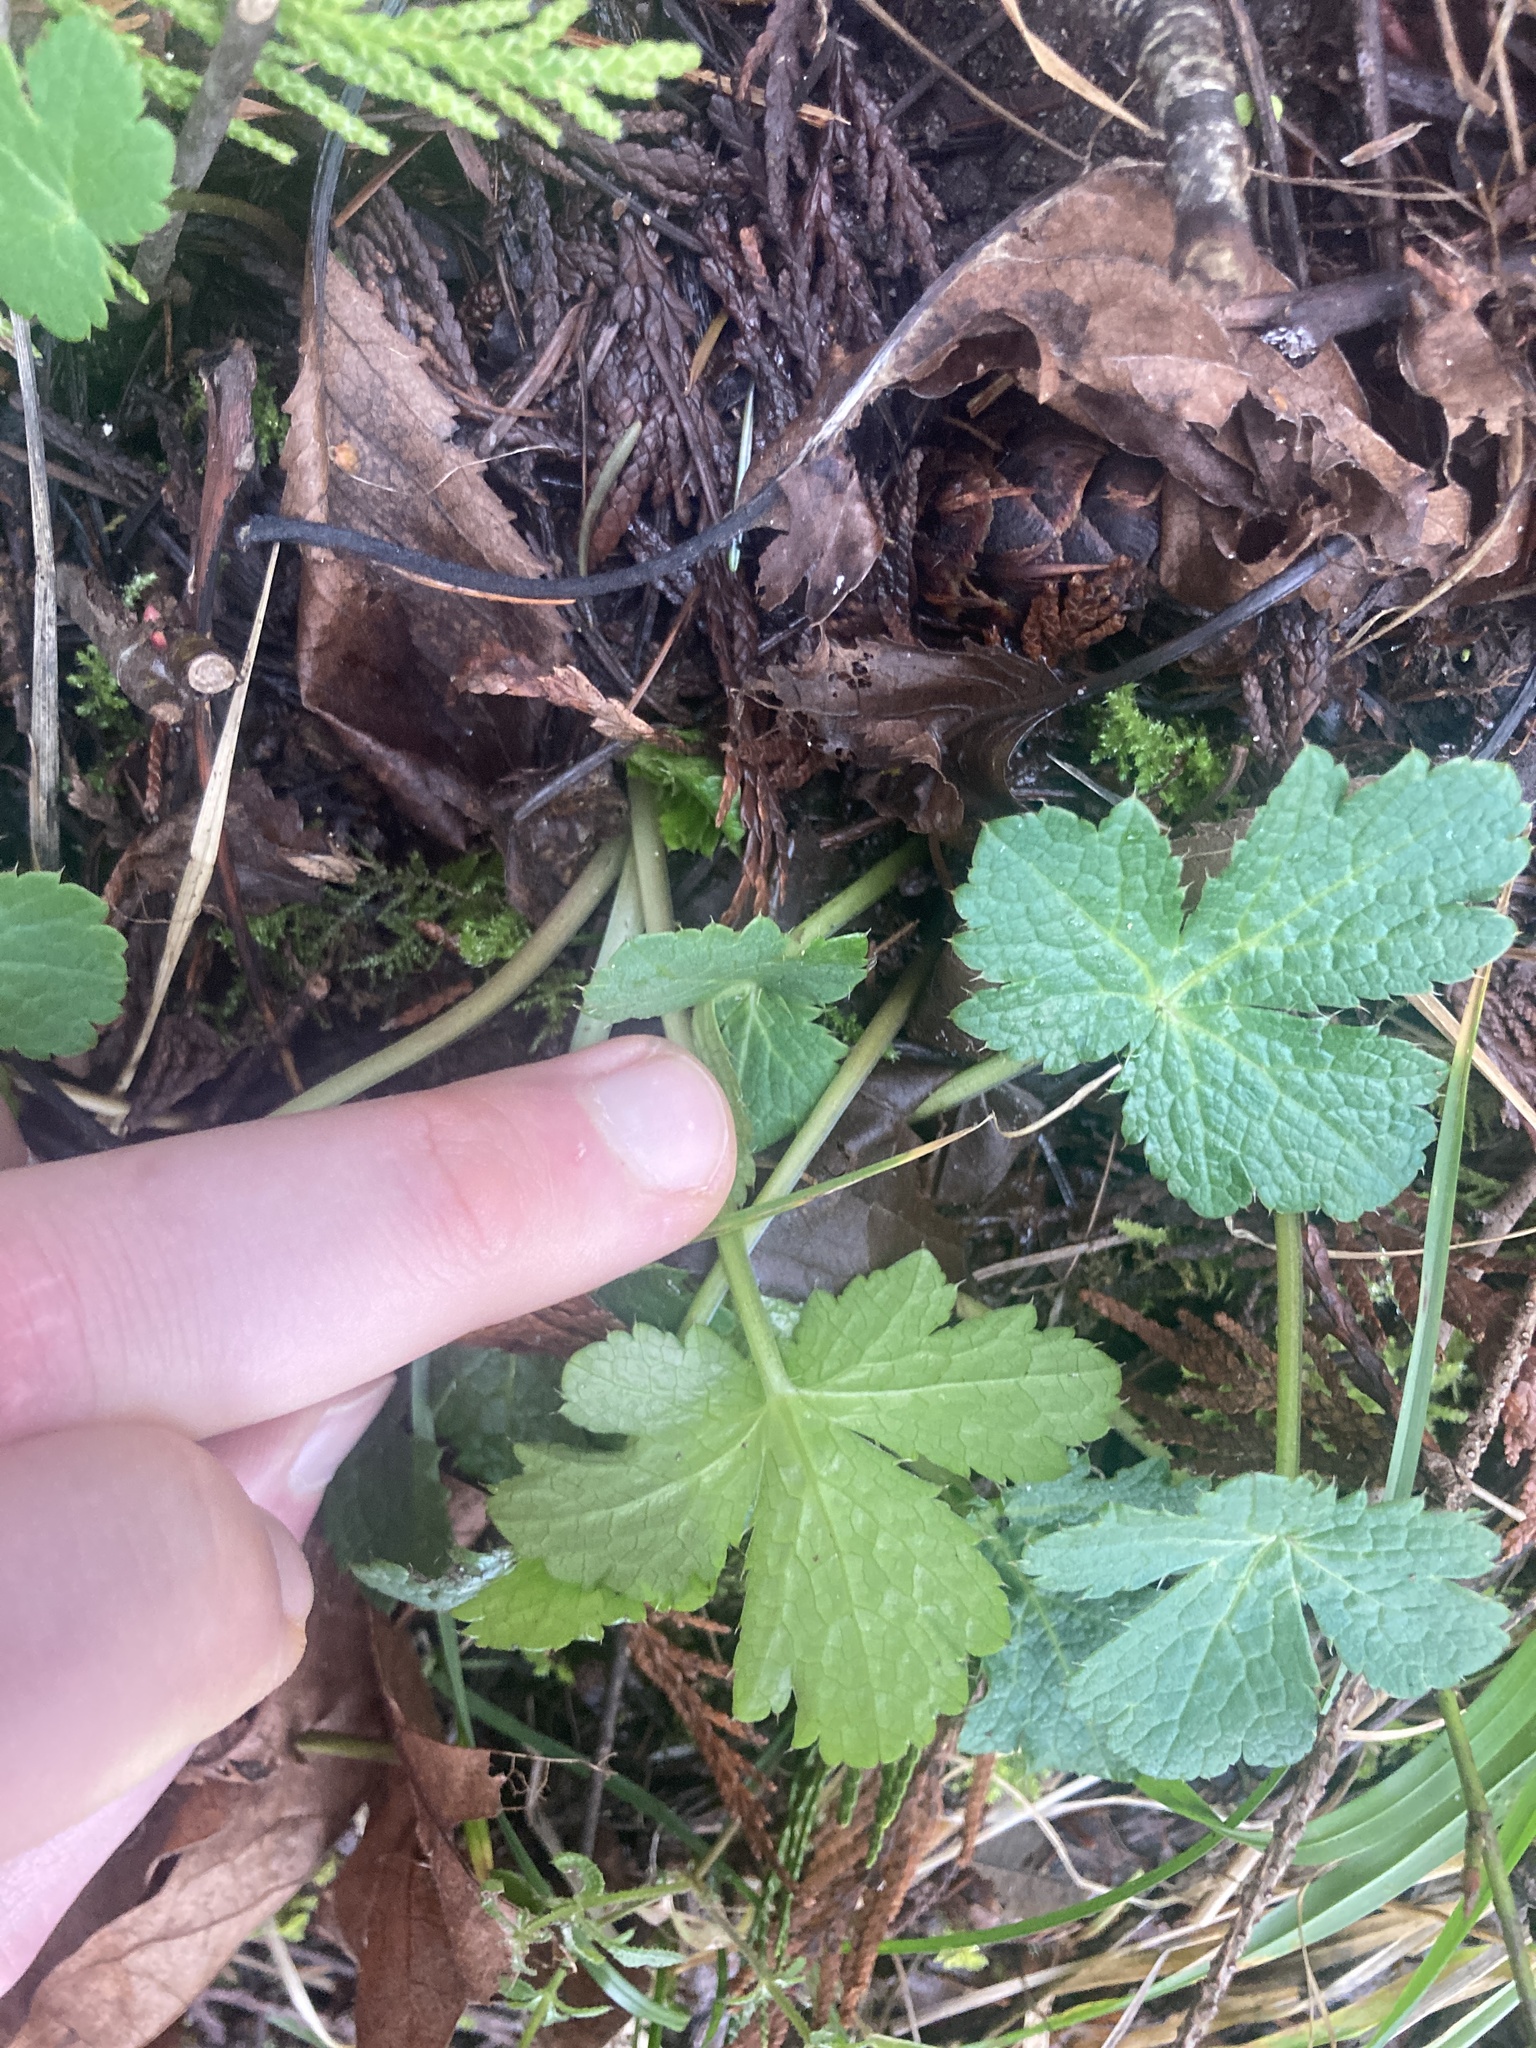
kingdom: Plantae
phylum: Tracheophyta
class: Magnoliopsida
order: Apiales
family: Apiaceae
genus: Sanicula
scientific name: Sanicula crassicaulis
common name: Western snakeroot
